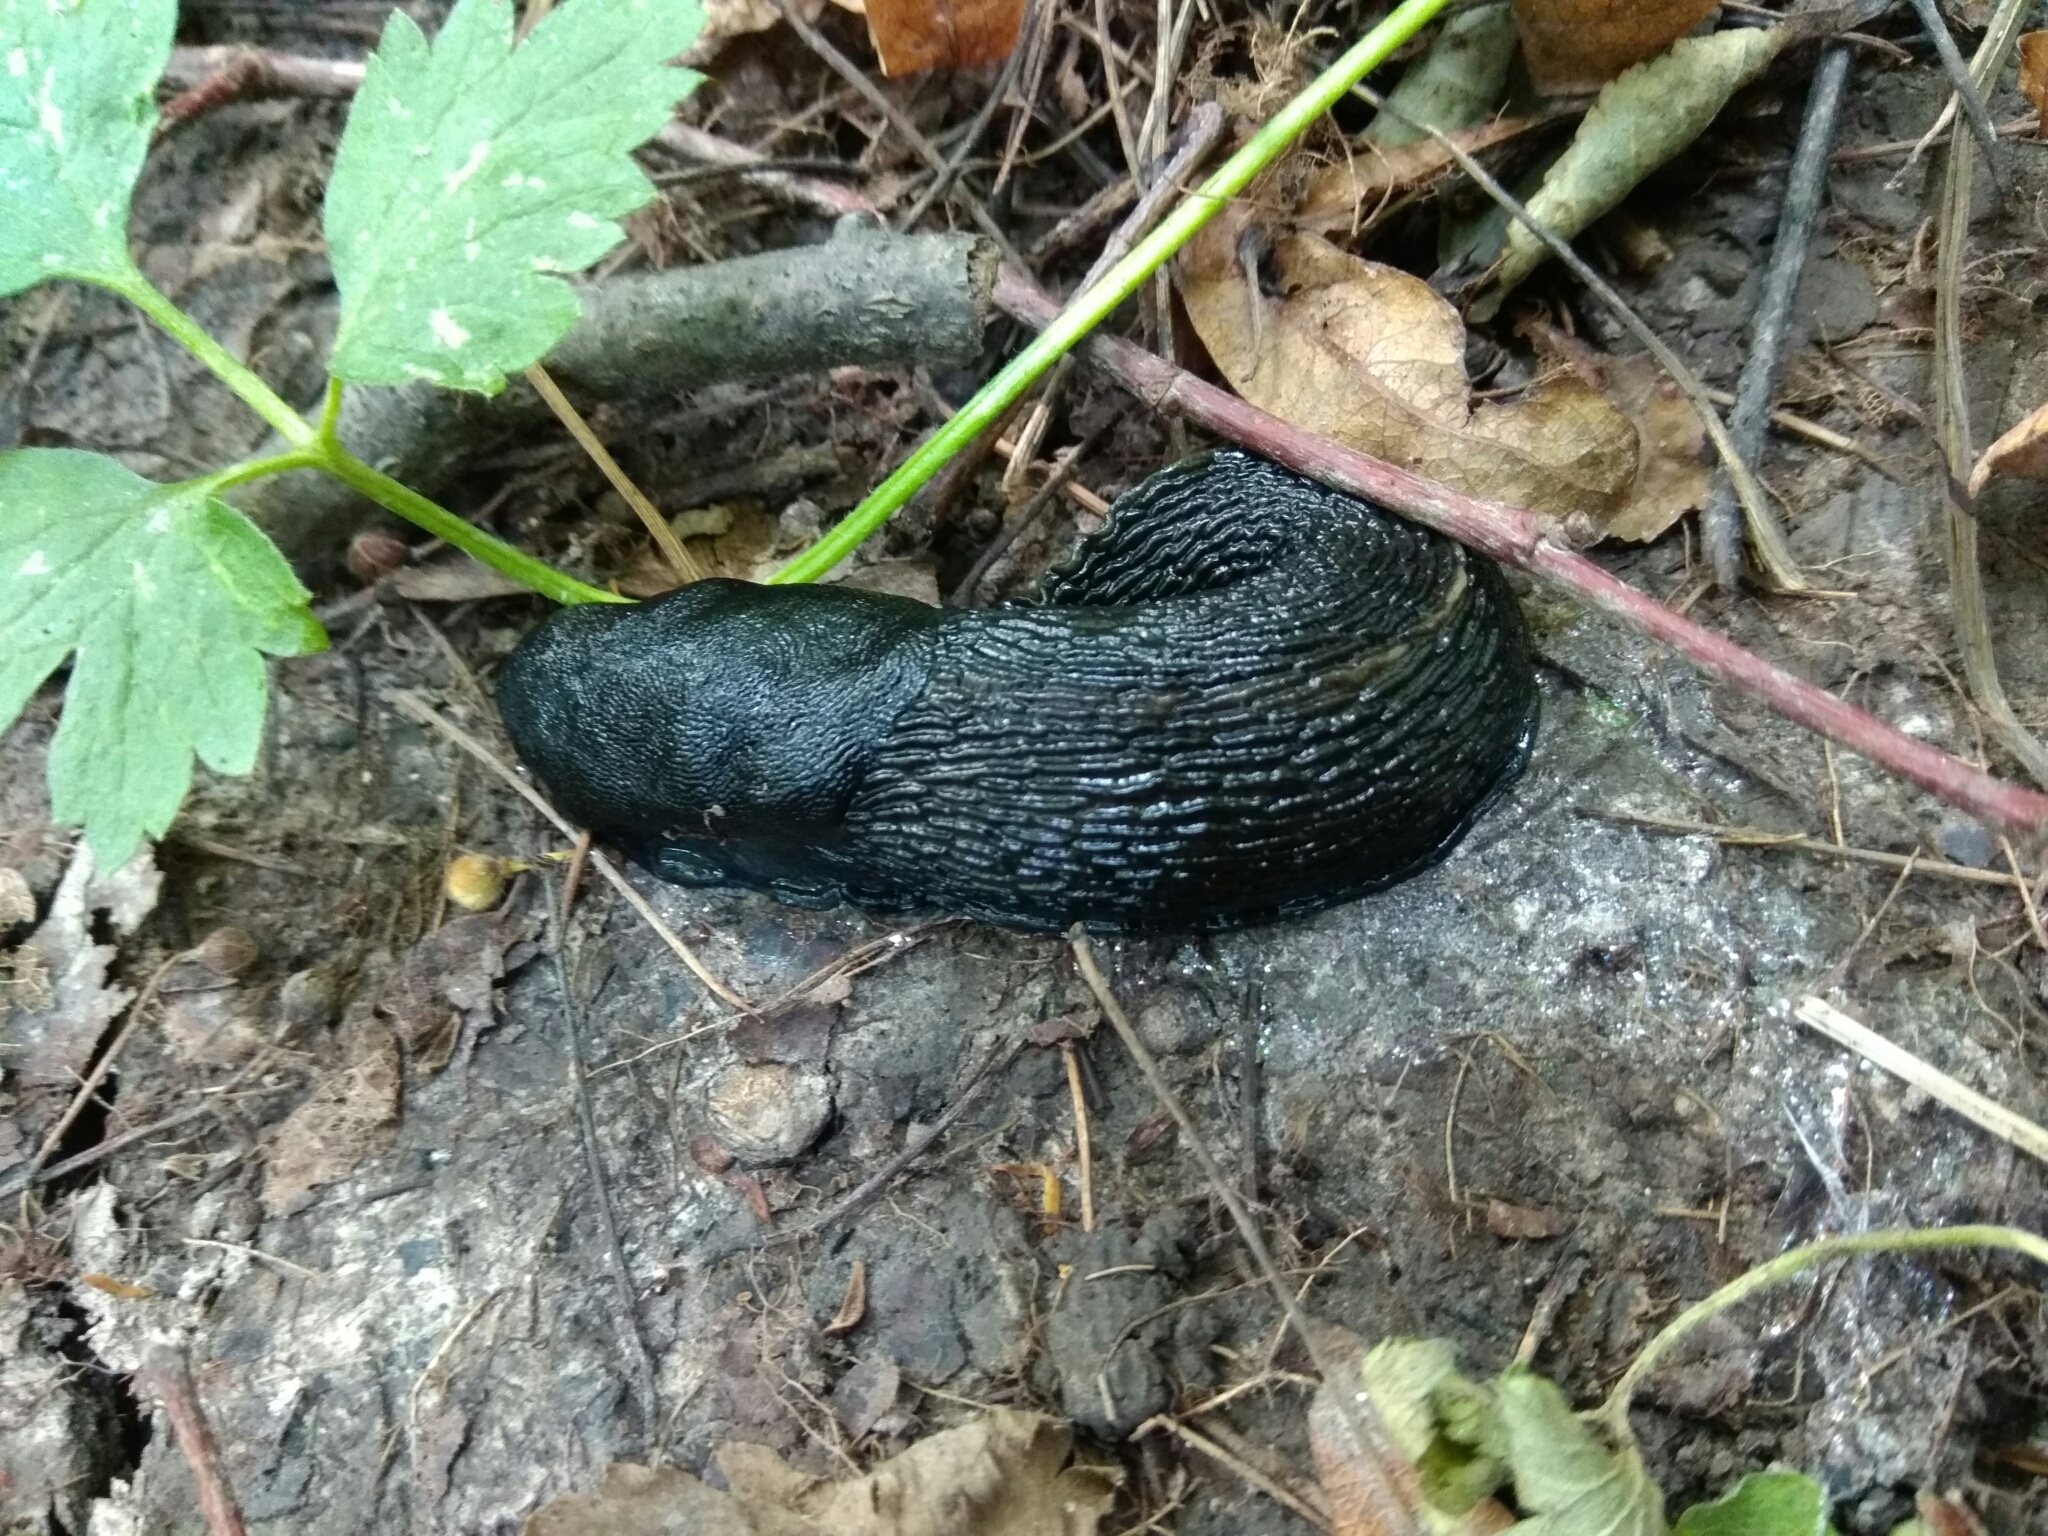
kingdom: Animalia
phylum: Mollusca
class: Gastropoda
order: Stylommatophora
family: Limacidae
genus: Limax
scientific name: Limax cinereoniger
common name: Ash-black slug
